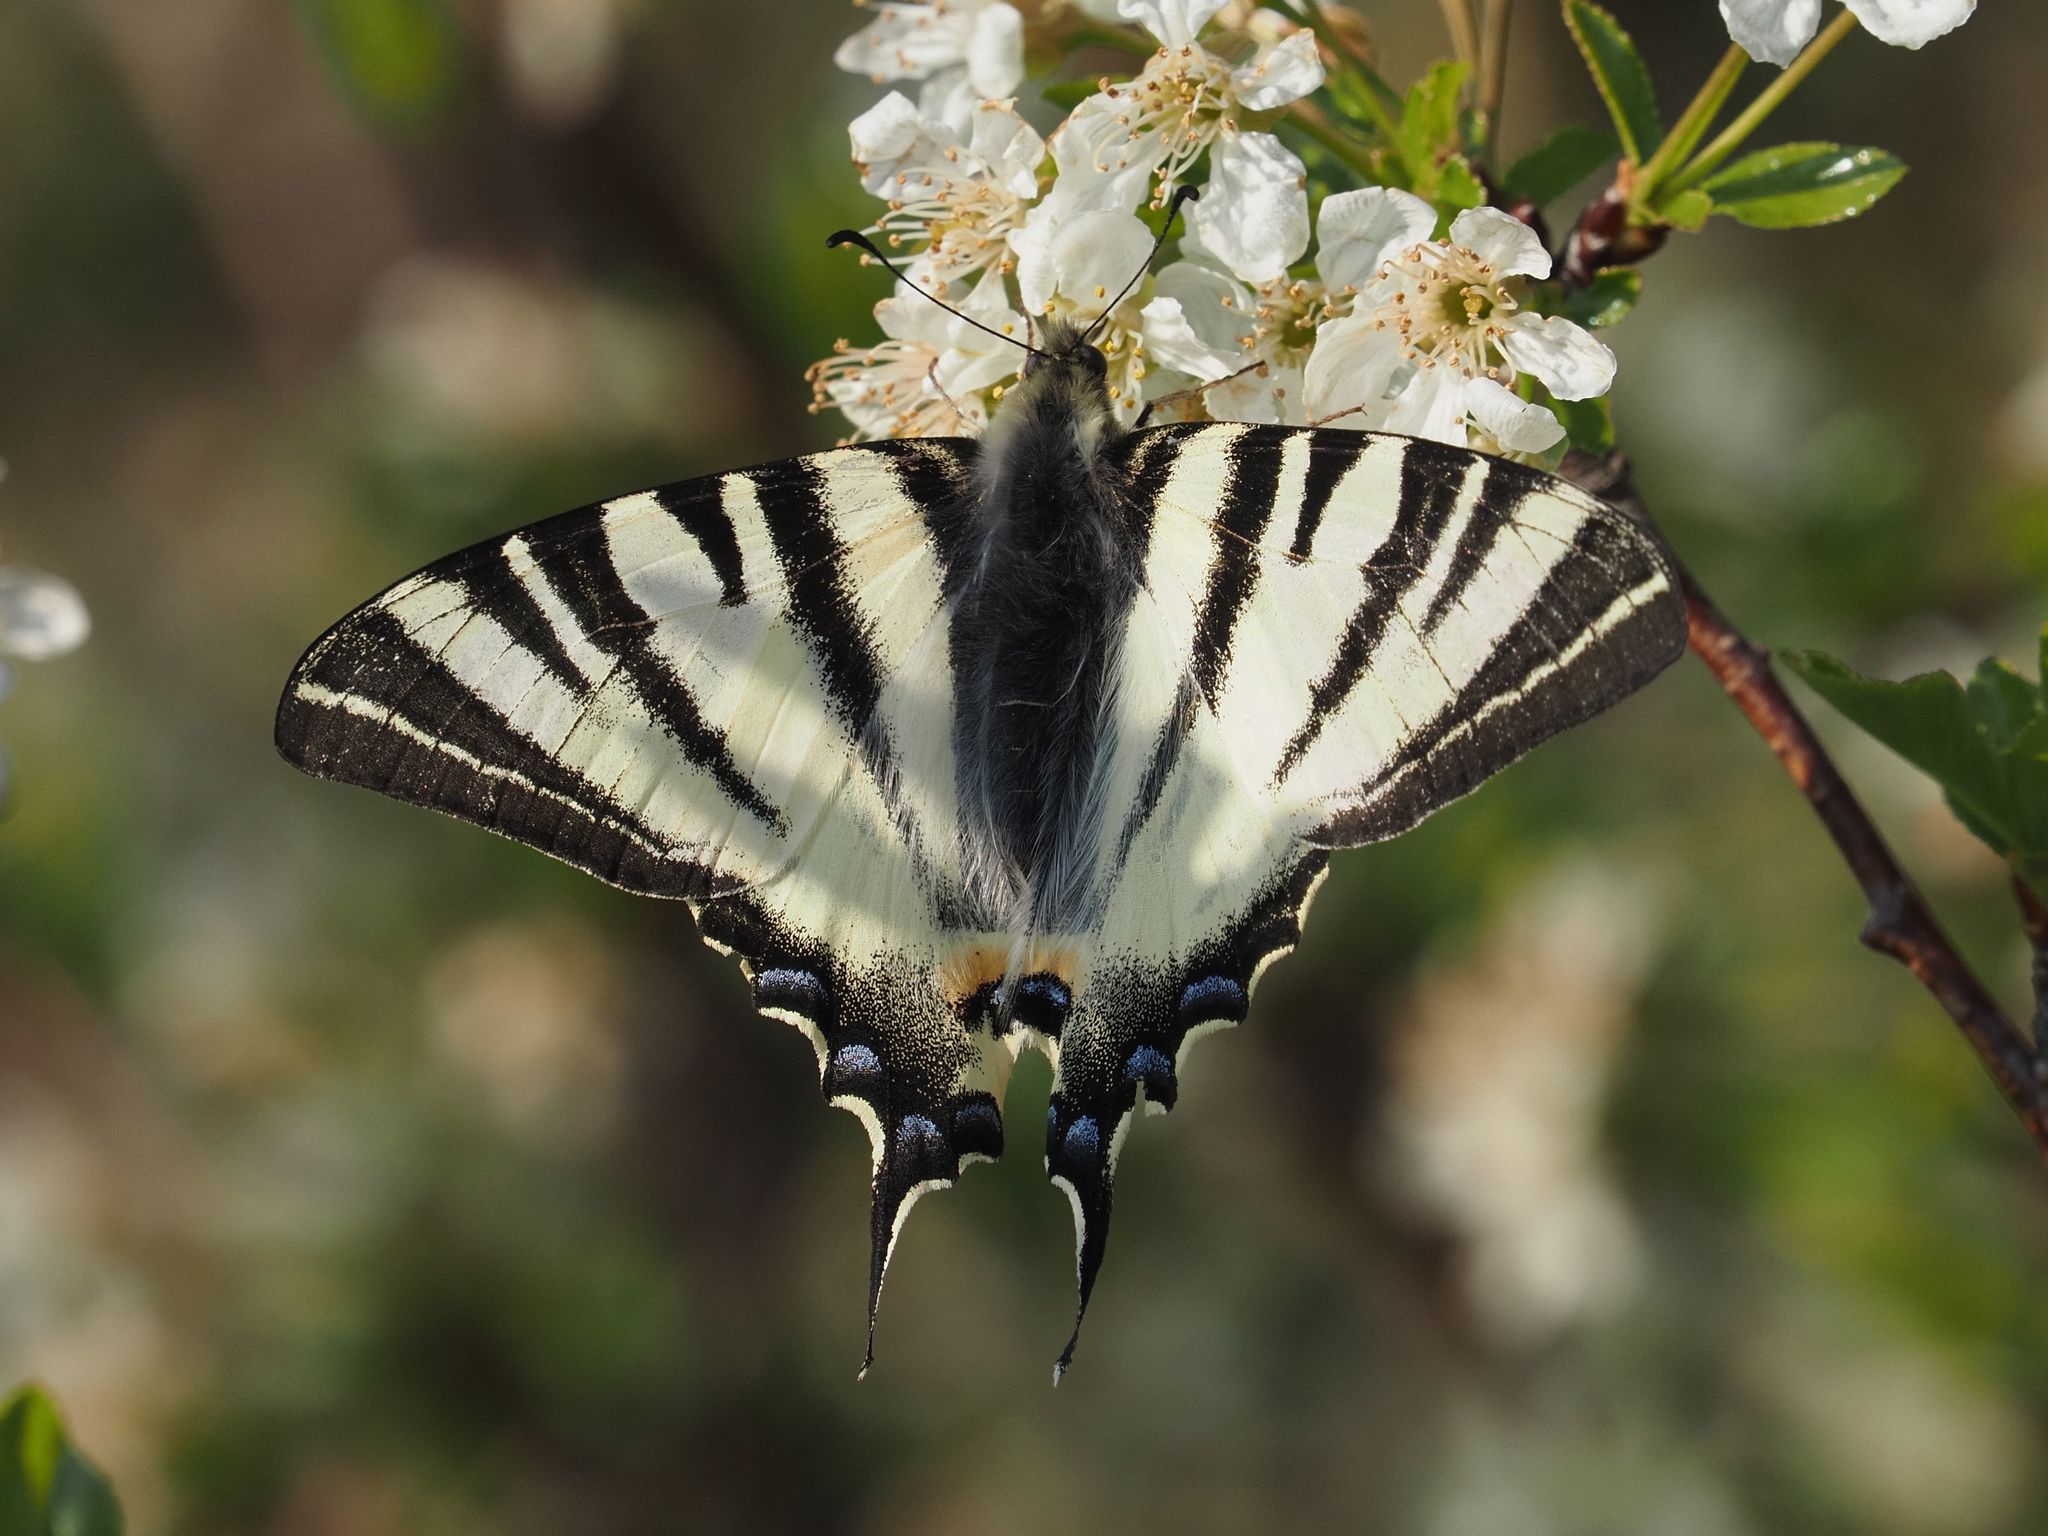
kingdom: Animalia
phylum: Arthropoda
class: Insecta
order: Lepidoptera
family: Papilionidae
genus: Iphiclides
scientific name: Iphiclides podalirius
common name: Scarce swallowtail
